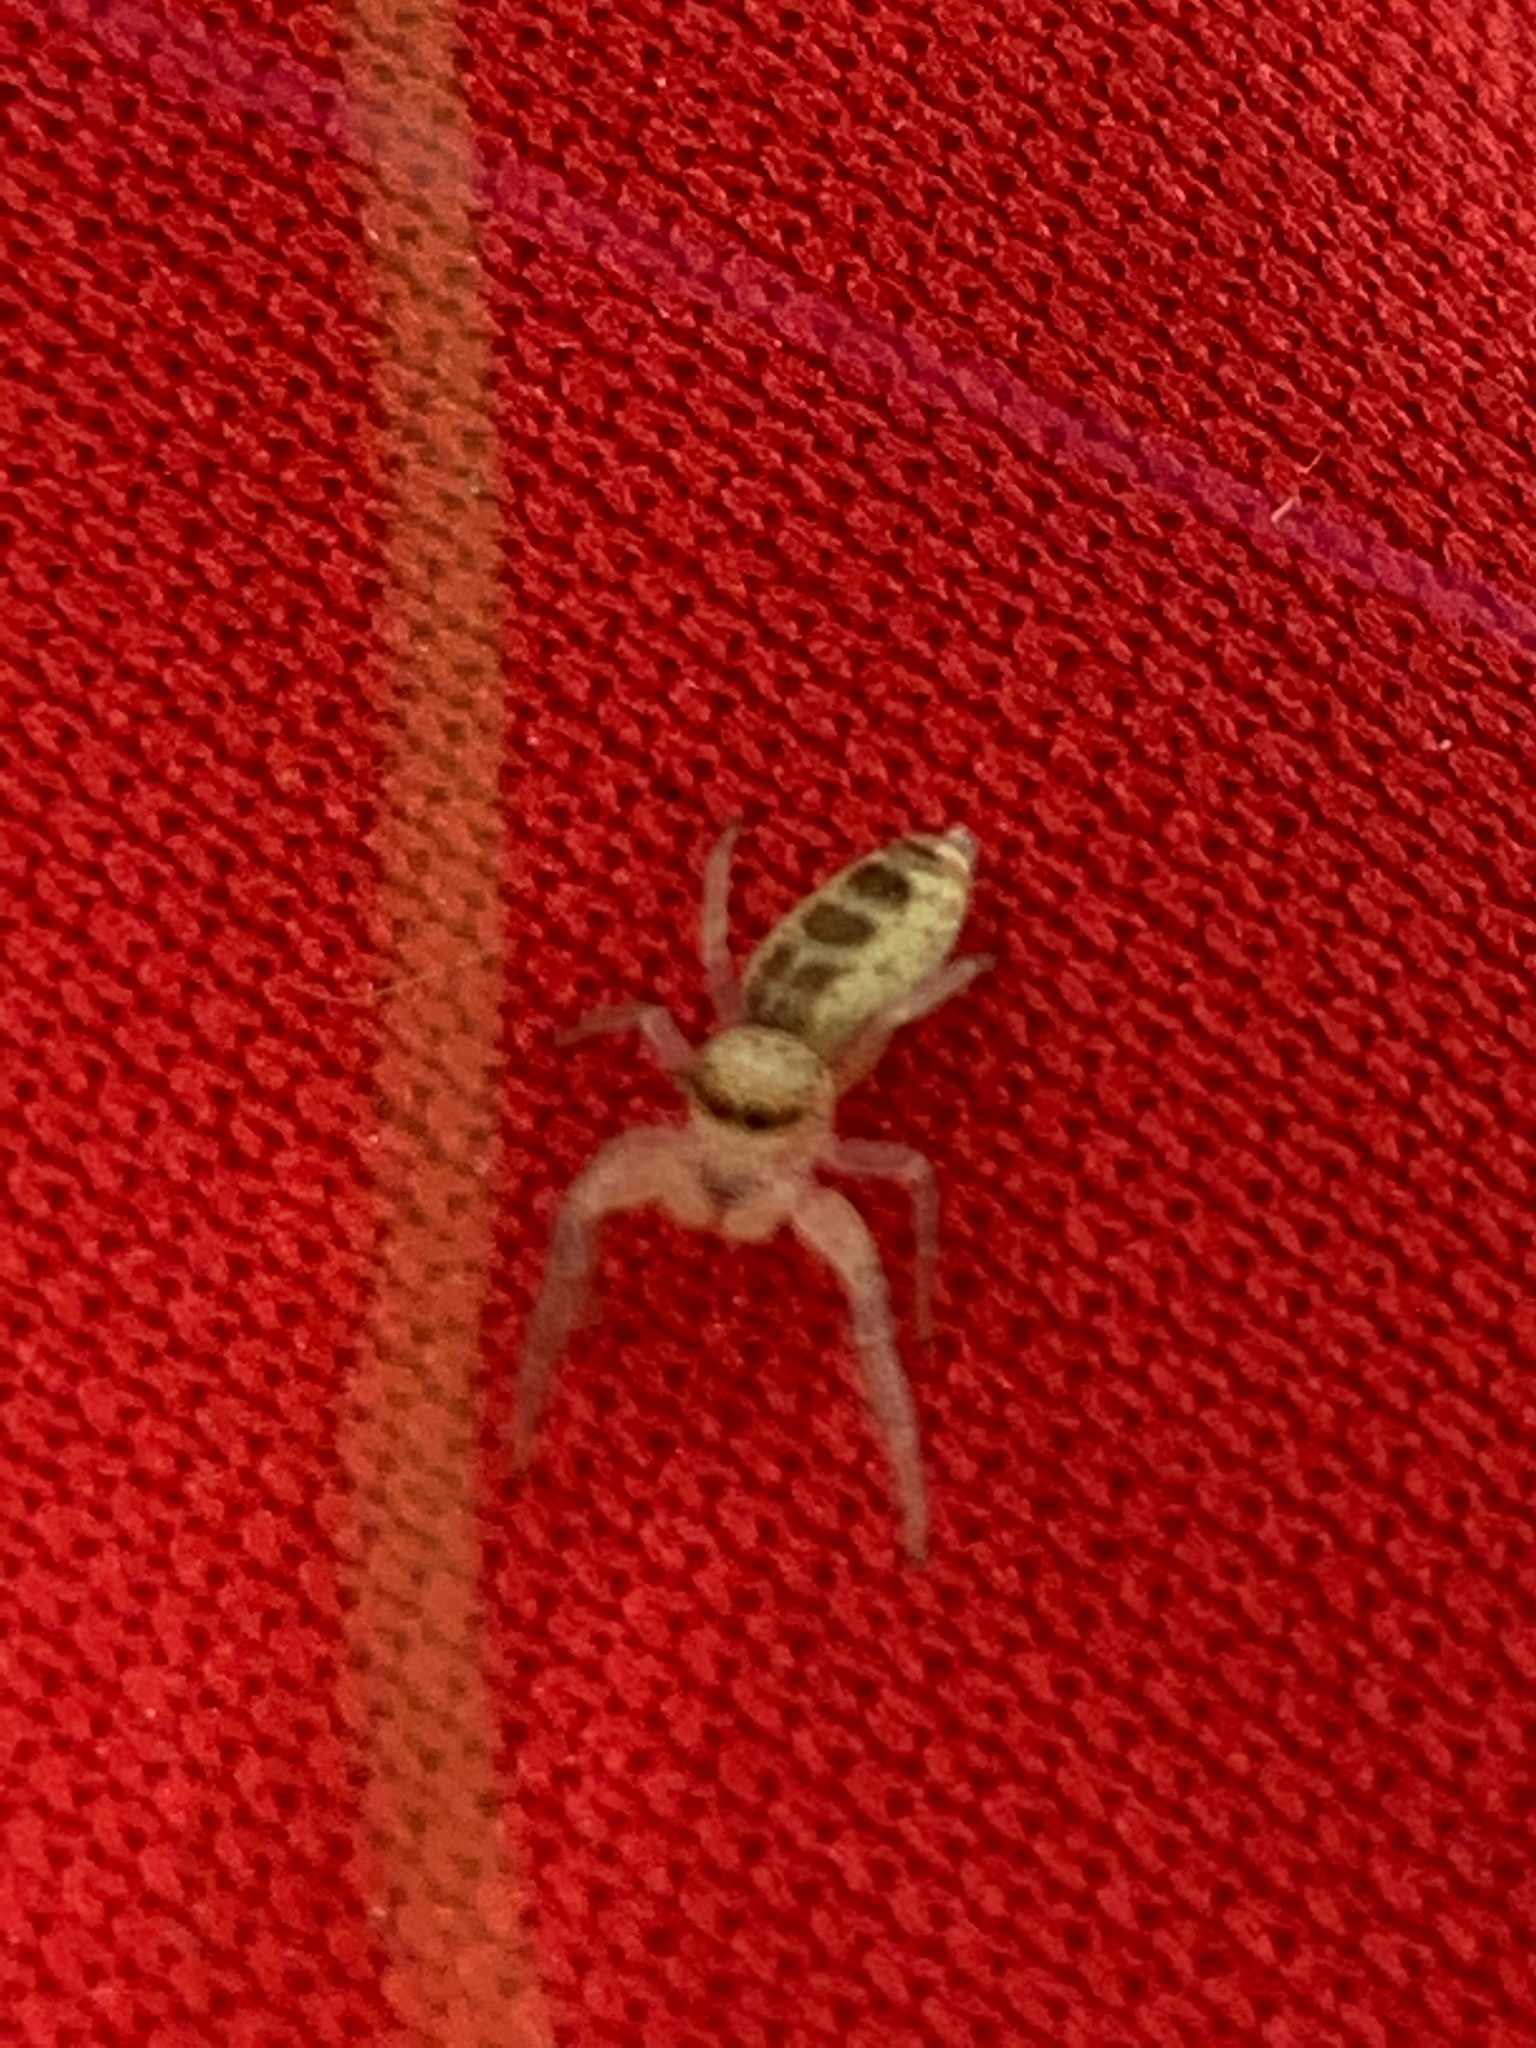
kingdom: Animalia
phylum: Arthropoda
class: Arachnida
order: Araneae
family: Salticidae
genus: Hentzia
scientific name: Hentzia mitrata
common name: White-jawed jumping spider
